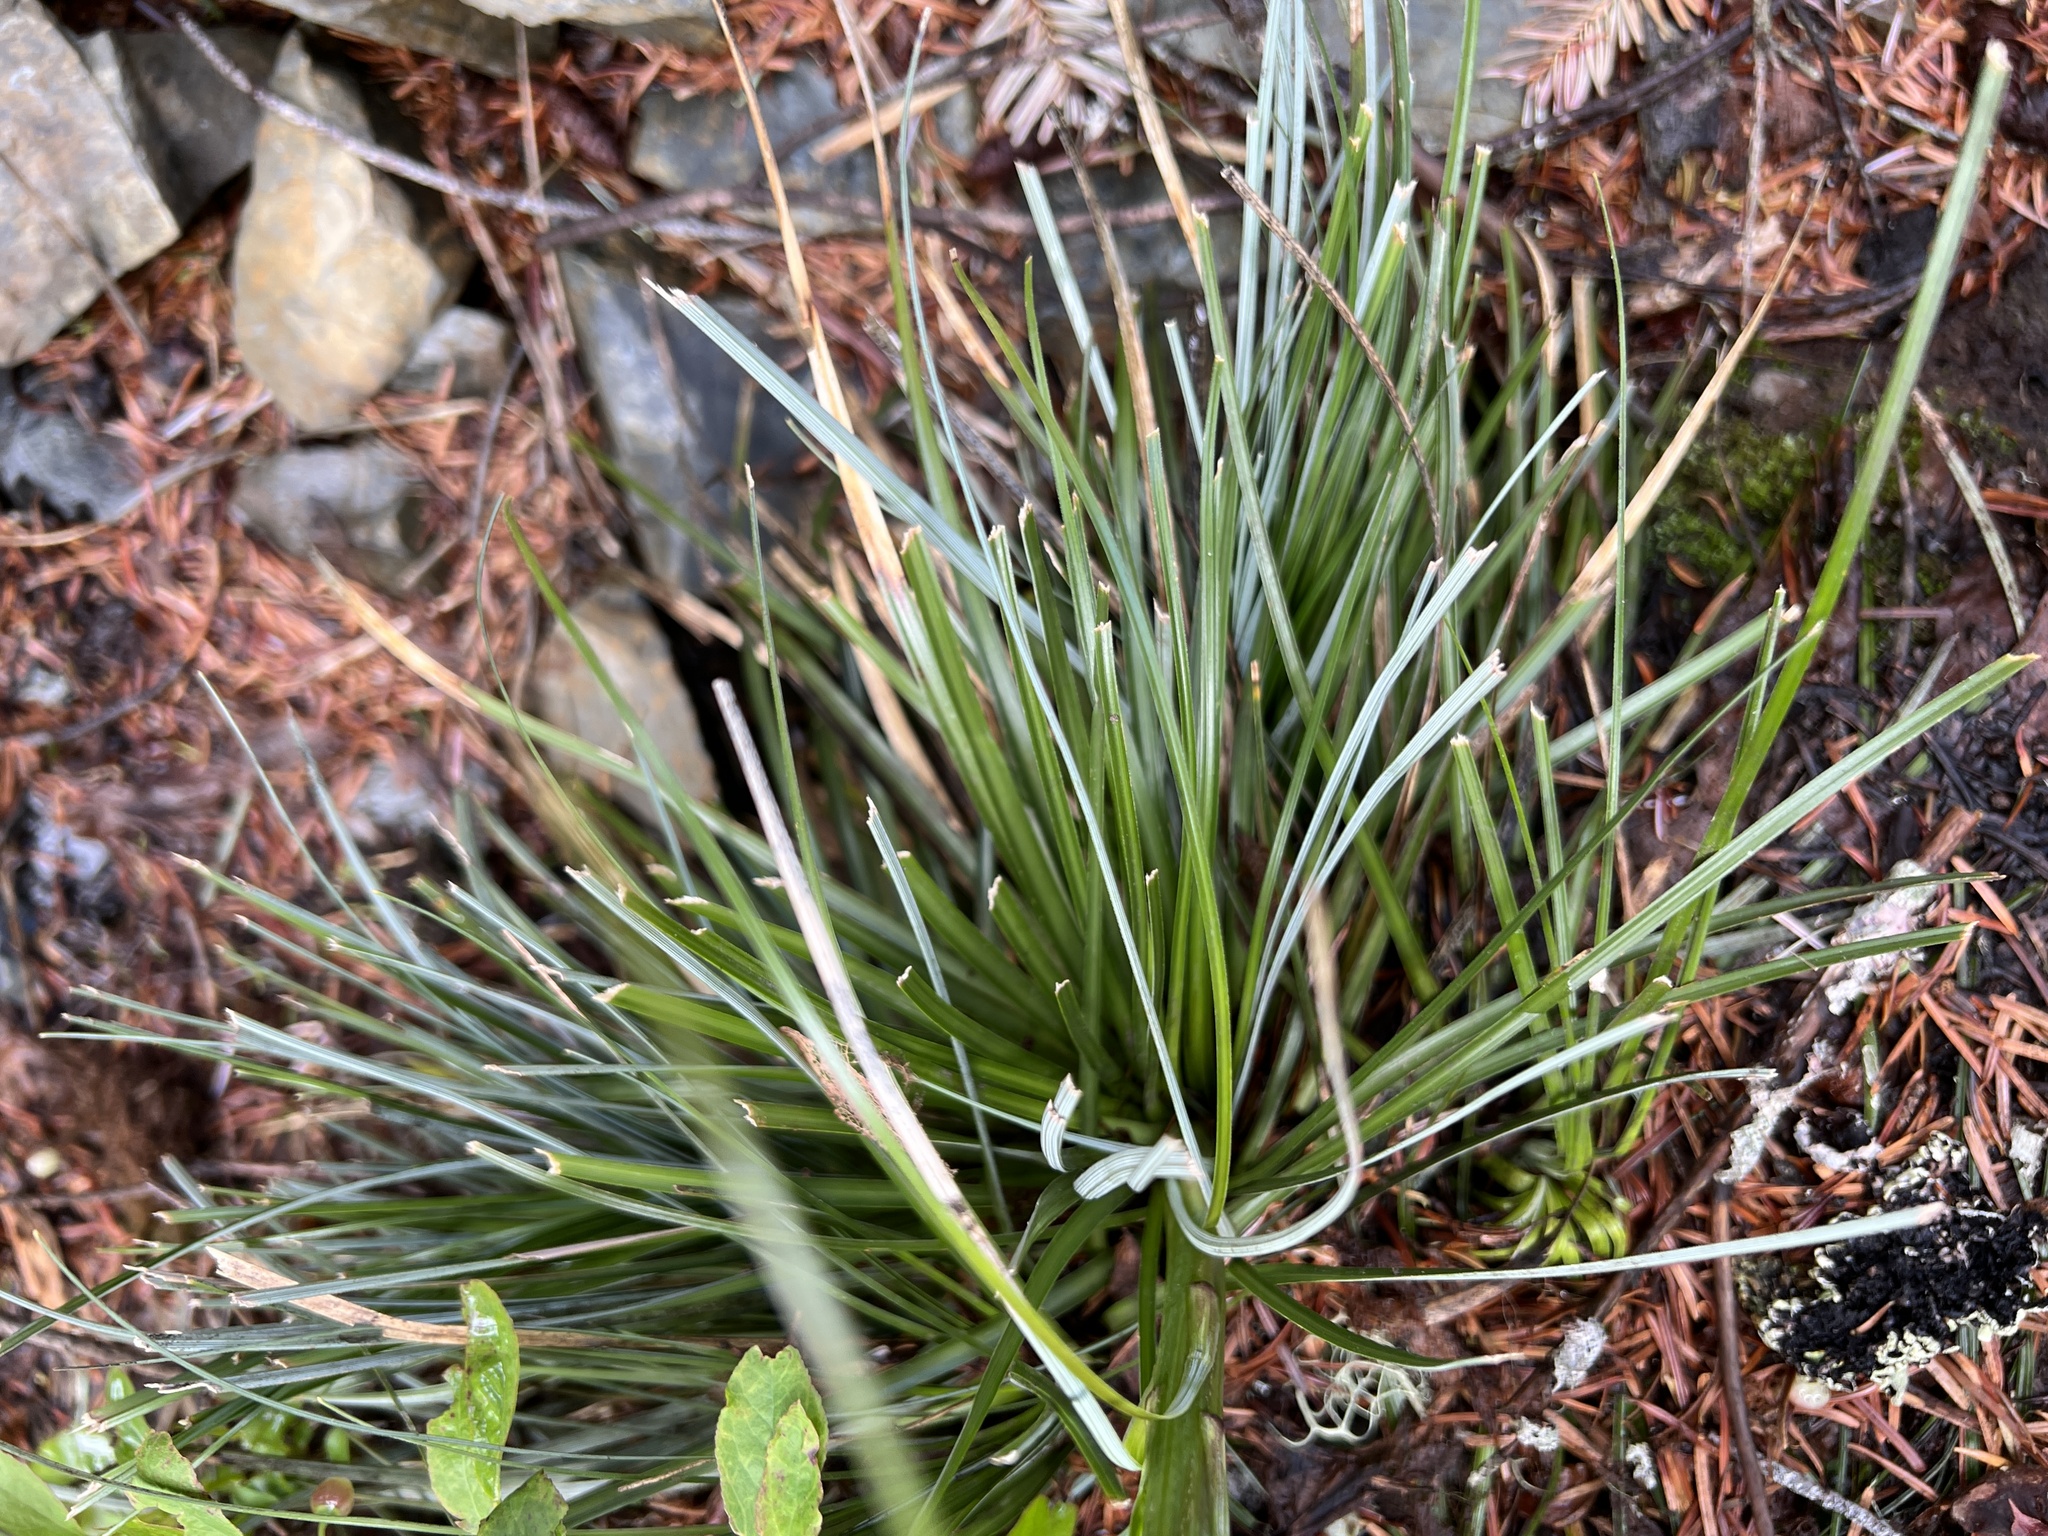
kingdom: Plantae
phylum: Tracheophyta
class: Liliopsida
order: Liliales
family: Melanthiaceae
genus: Xerophyllum
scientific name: Xerophyllum tenax
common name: Bear-grass
